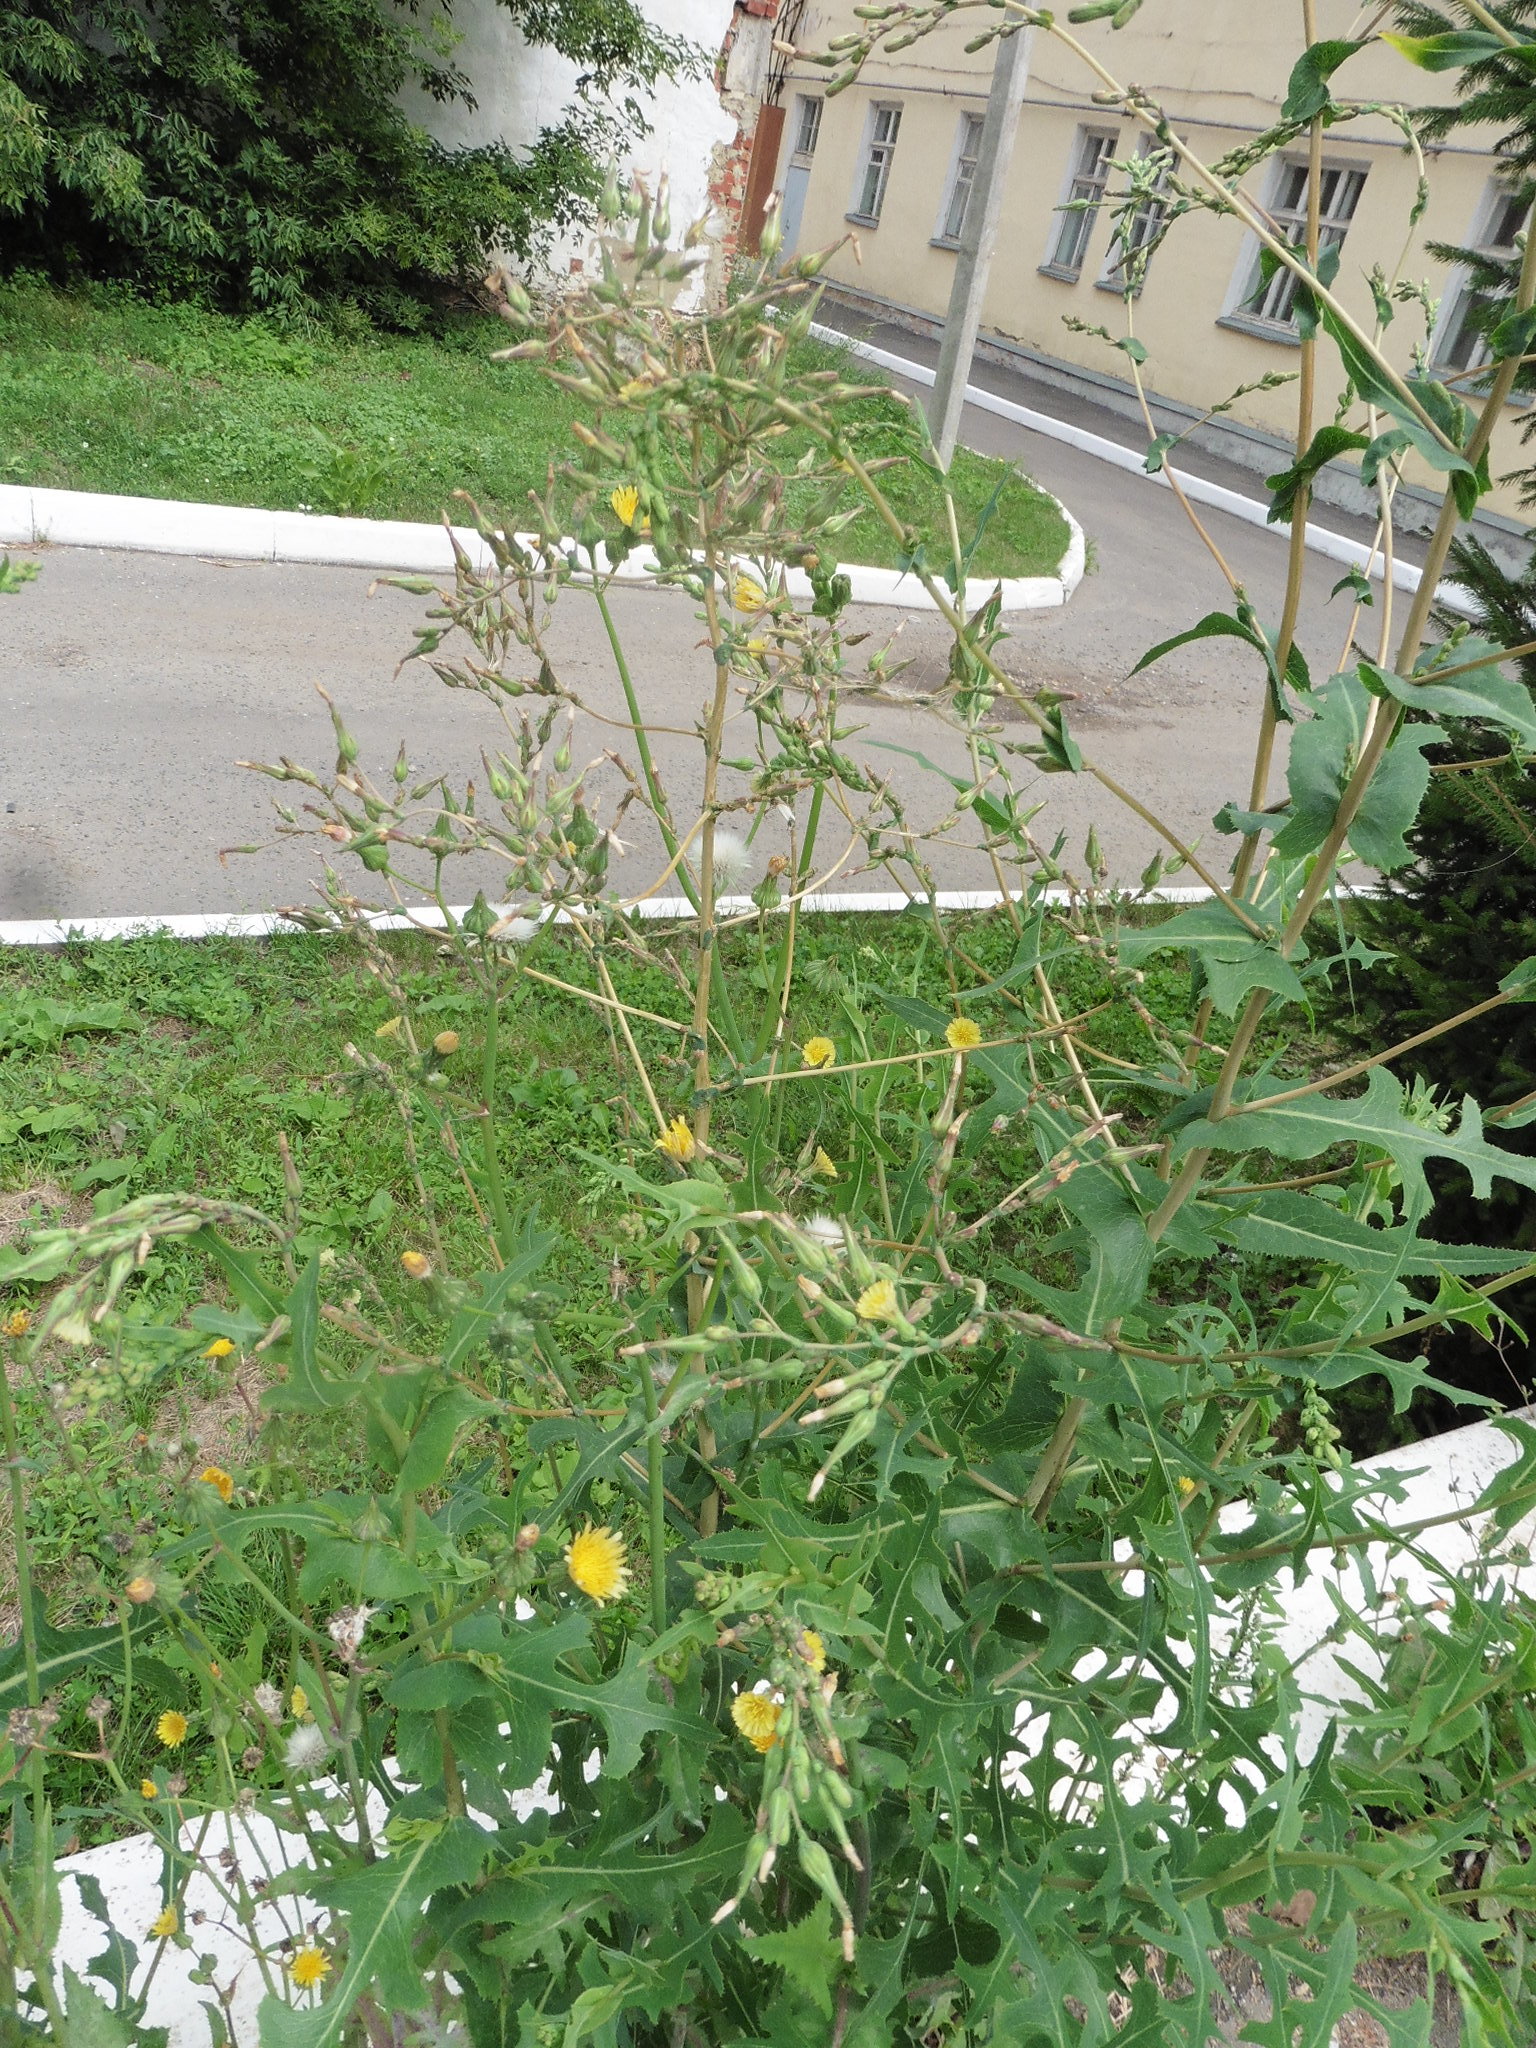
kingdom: Plantae
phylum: Tracheophyta
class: Magnoliopsida
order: Asterales
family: Asteraceae
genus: Lactuca
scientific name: Lactuca serriola
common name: Prickly lettuce
